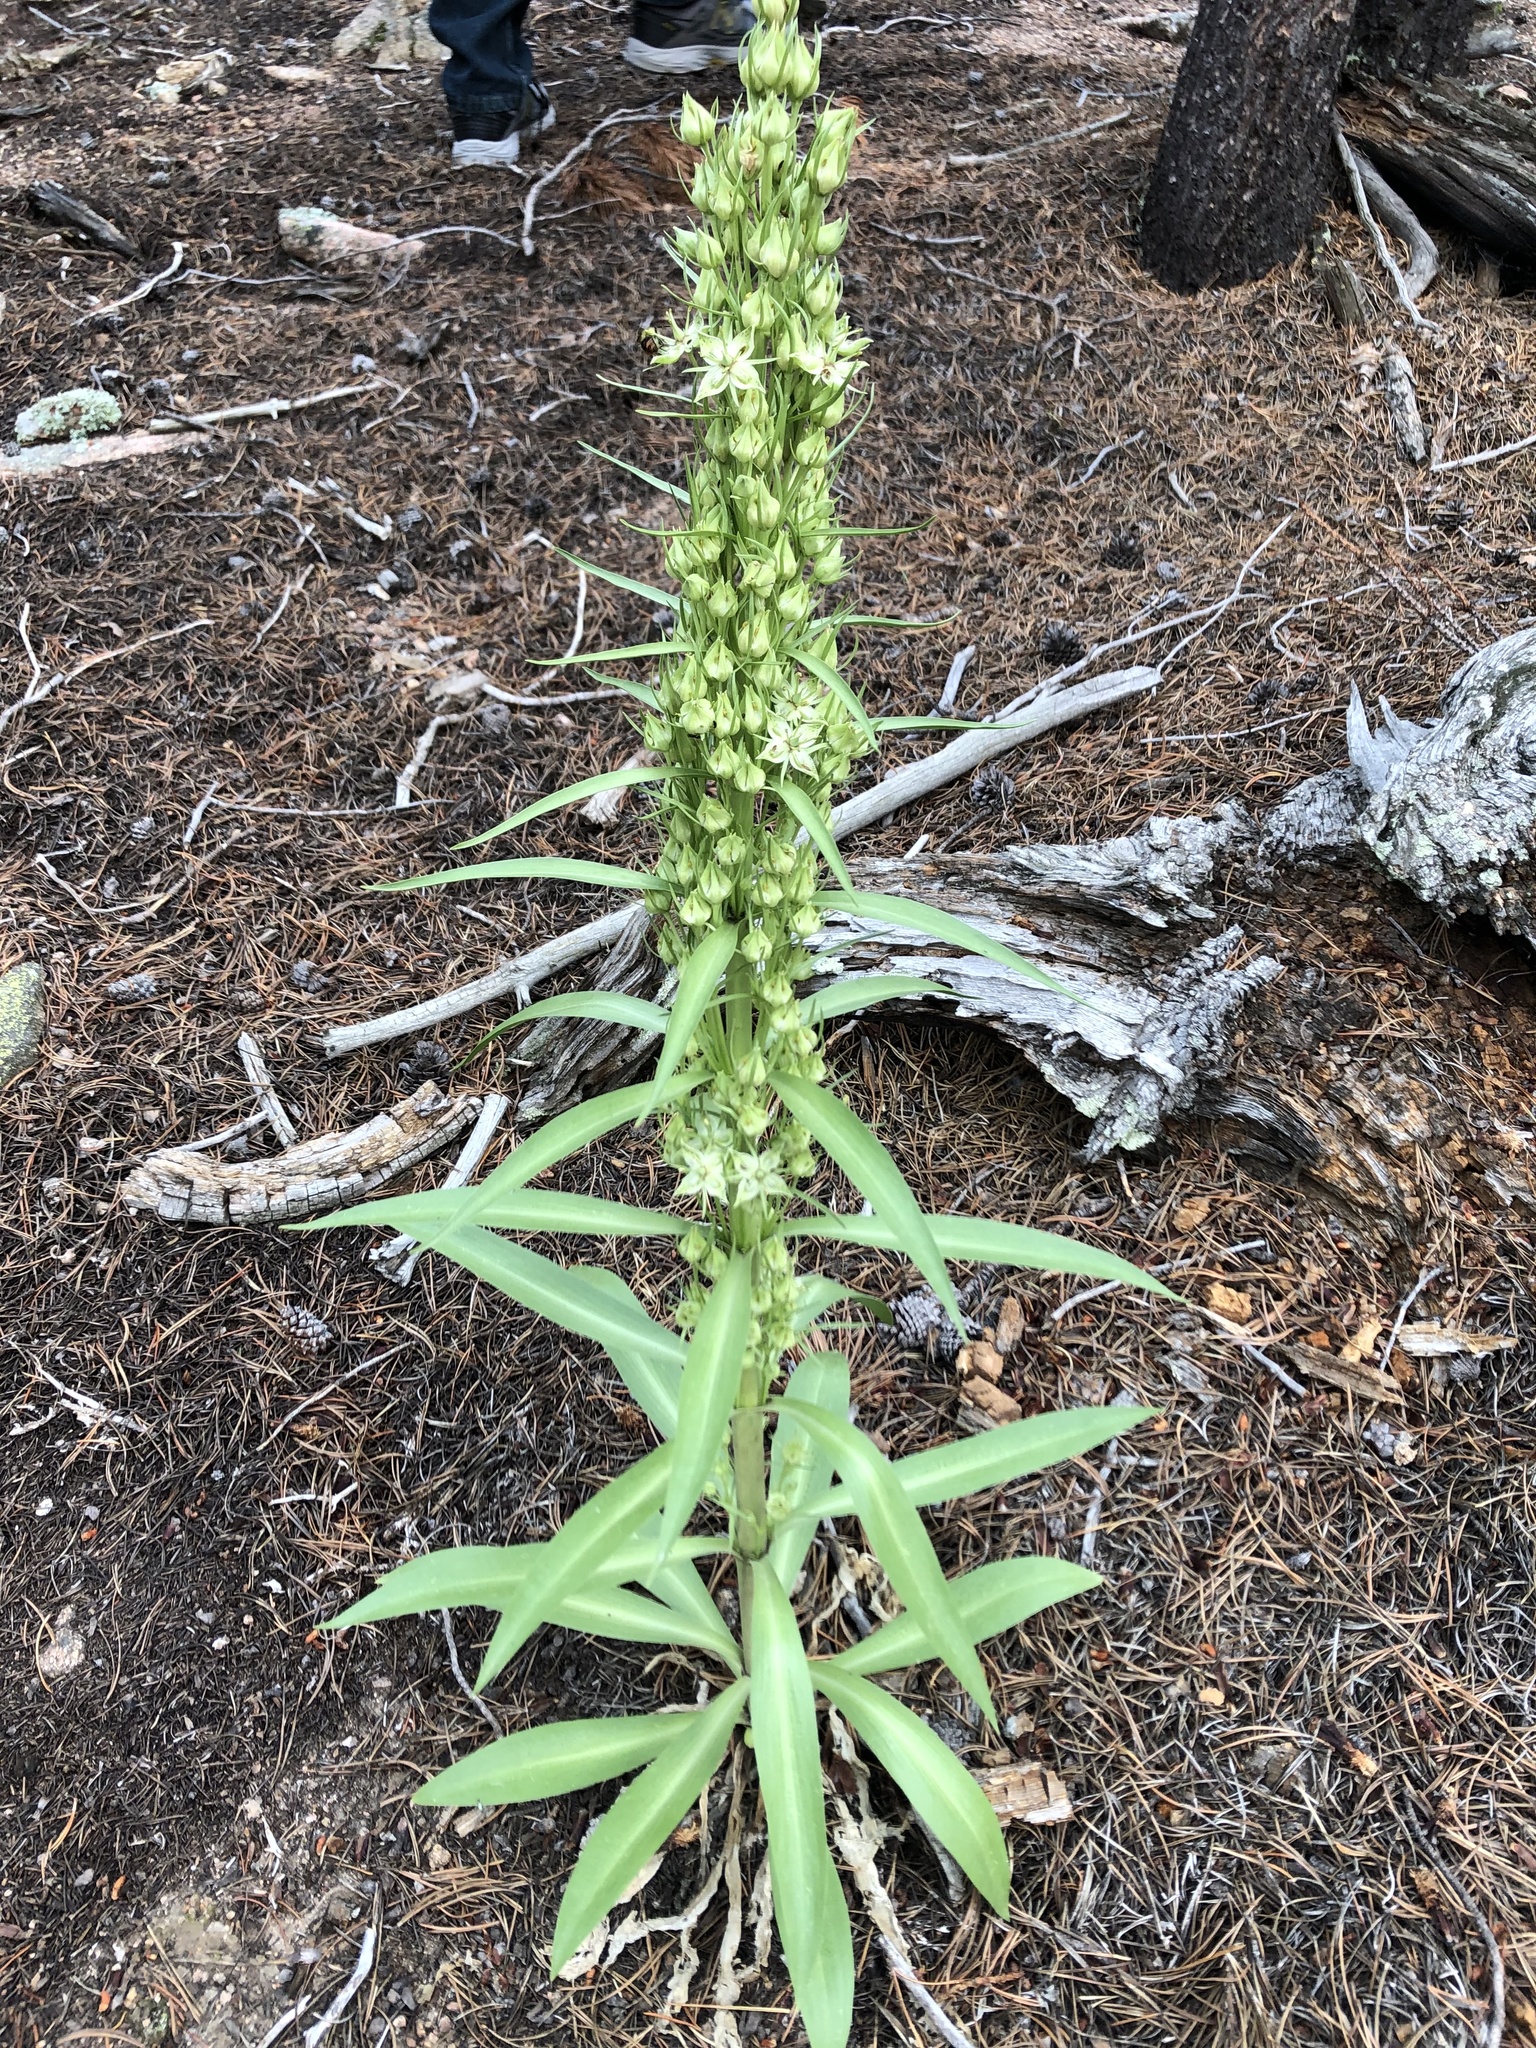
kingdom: Plantae
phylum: Tracheophyta
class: Magnoliopsida
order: Gentianales
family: Gentianaceae
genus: Frasera
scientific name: Frasera speciosa
